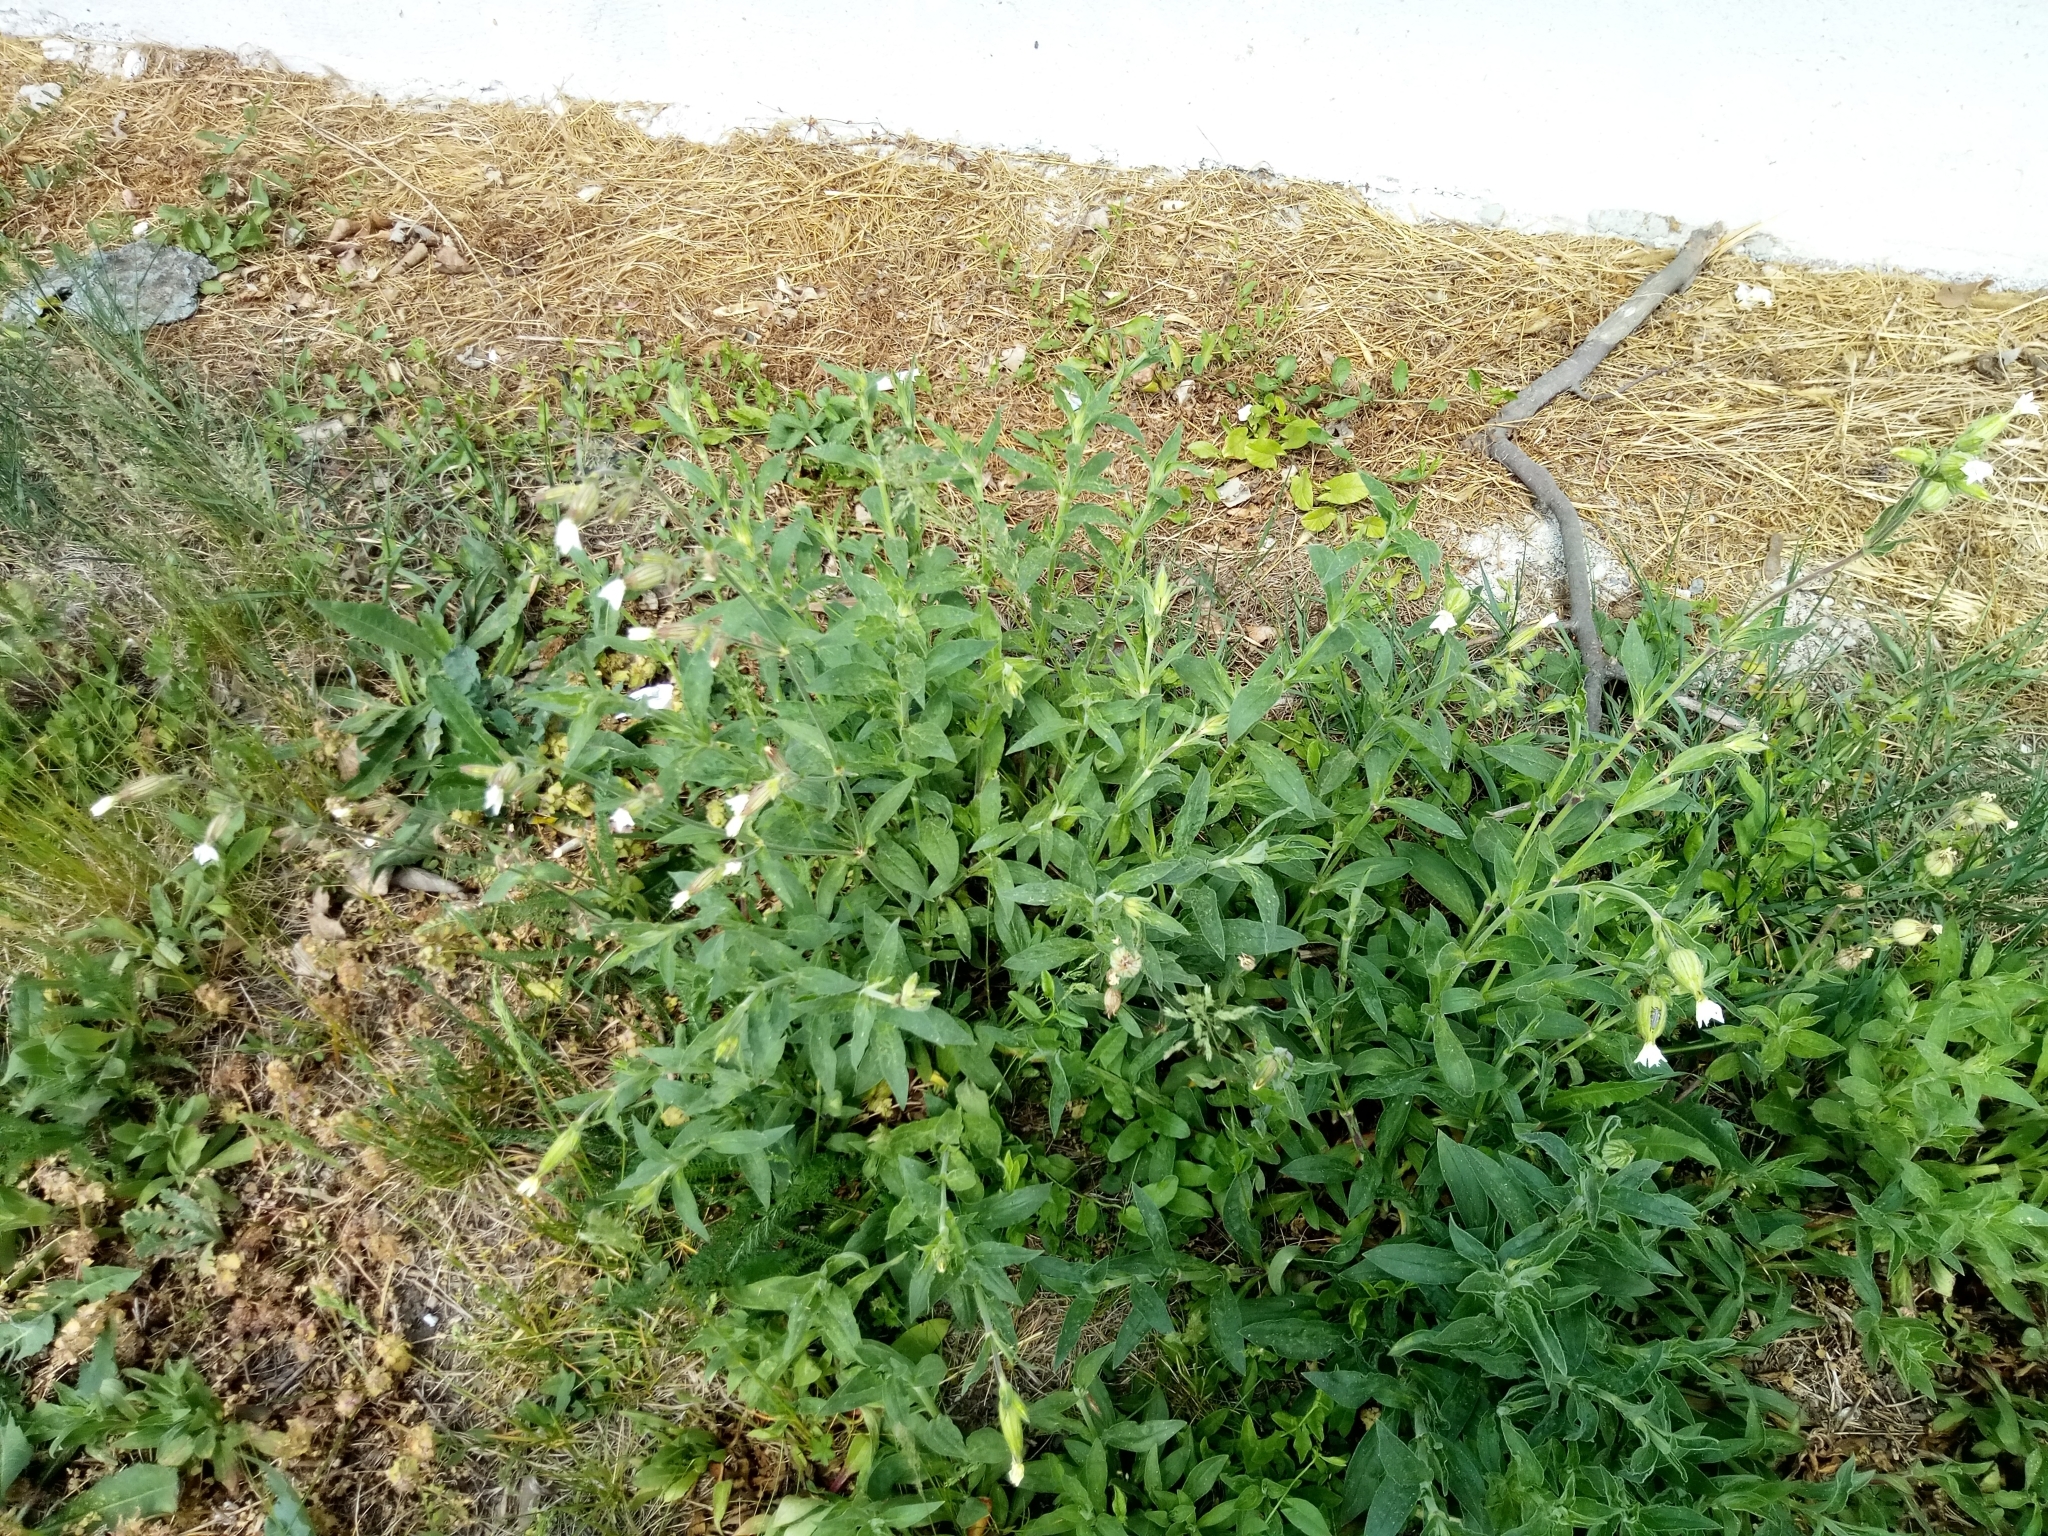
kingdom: Plantae
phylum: Tracheophyta
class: Magnoliopsida
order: Caryophyllales
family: Caryophyllaceae
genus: Silene
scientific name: Silene latifolia
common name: White campion
